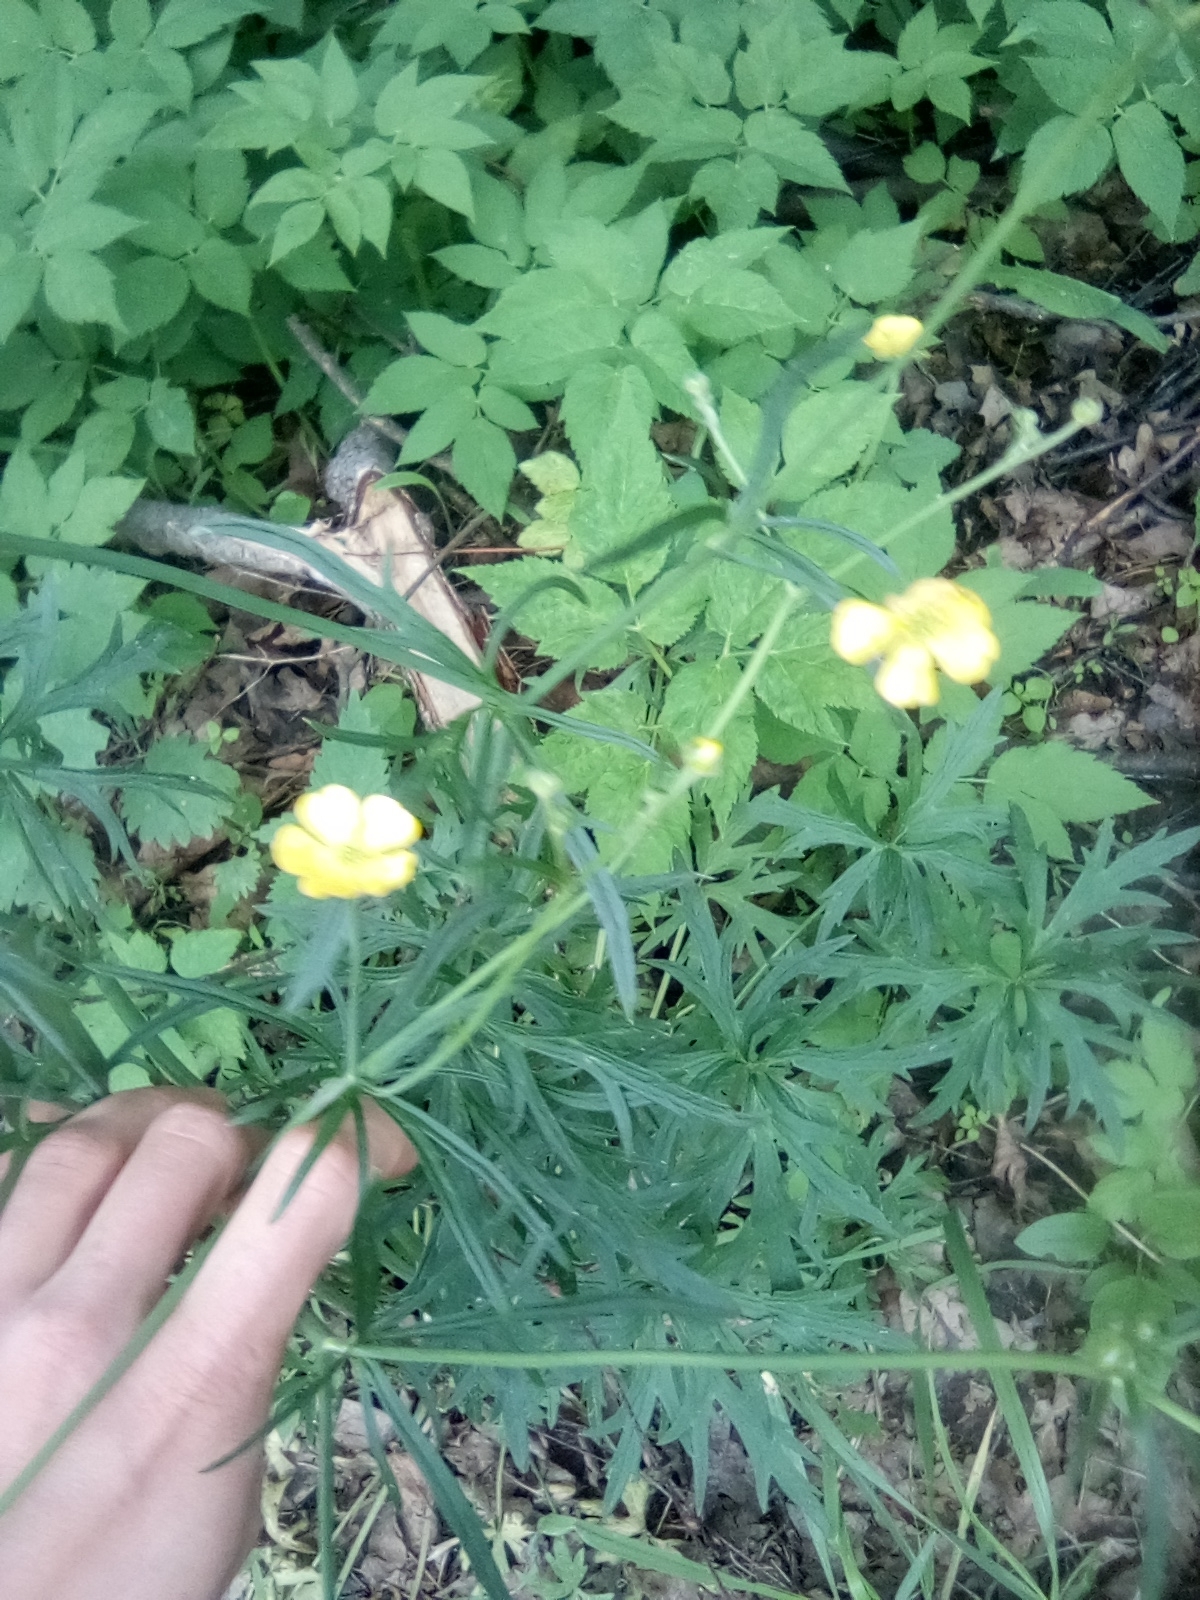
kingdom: Plantae
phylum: Tracheophyta
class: Magnoliopsida
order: Ranunculales
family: Ranunculaceae
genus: Ranunculus
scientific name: Ranunculus acris
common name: Meadow buttercup
